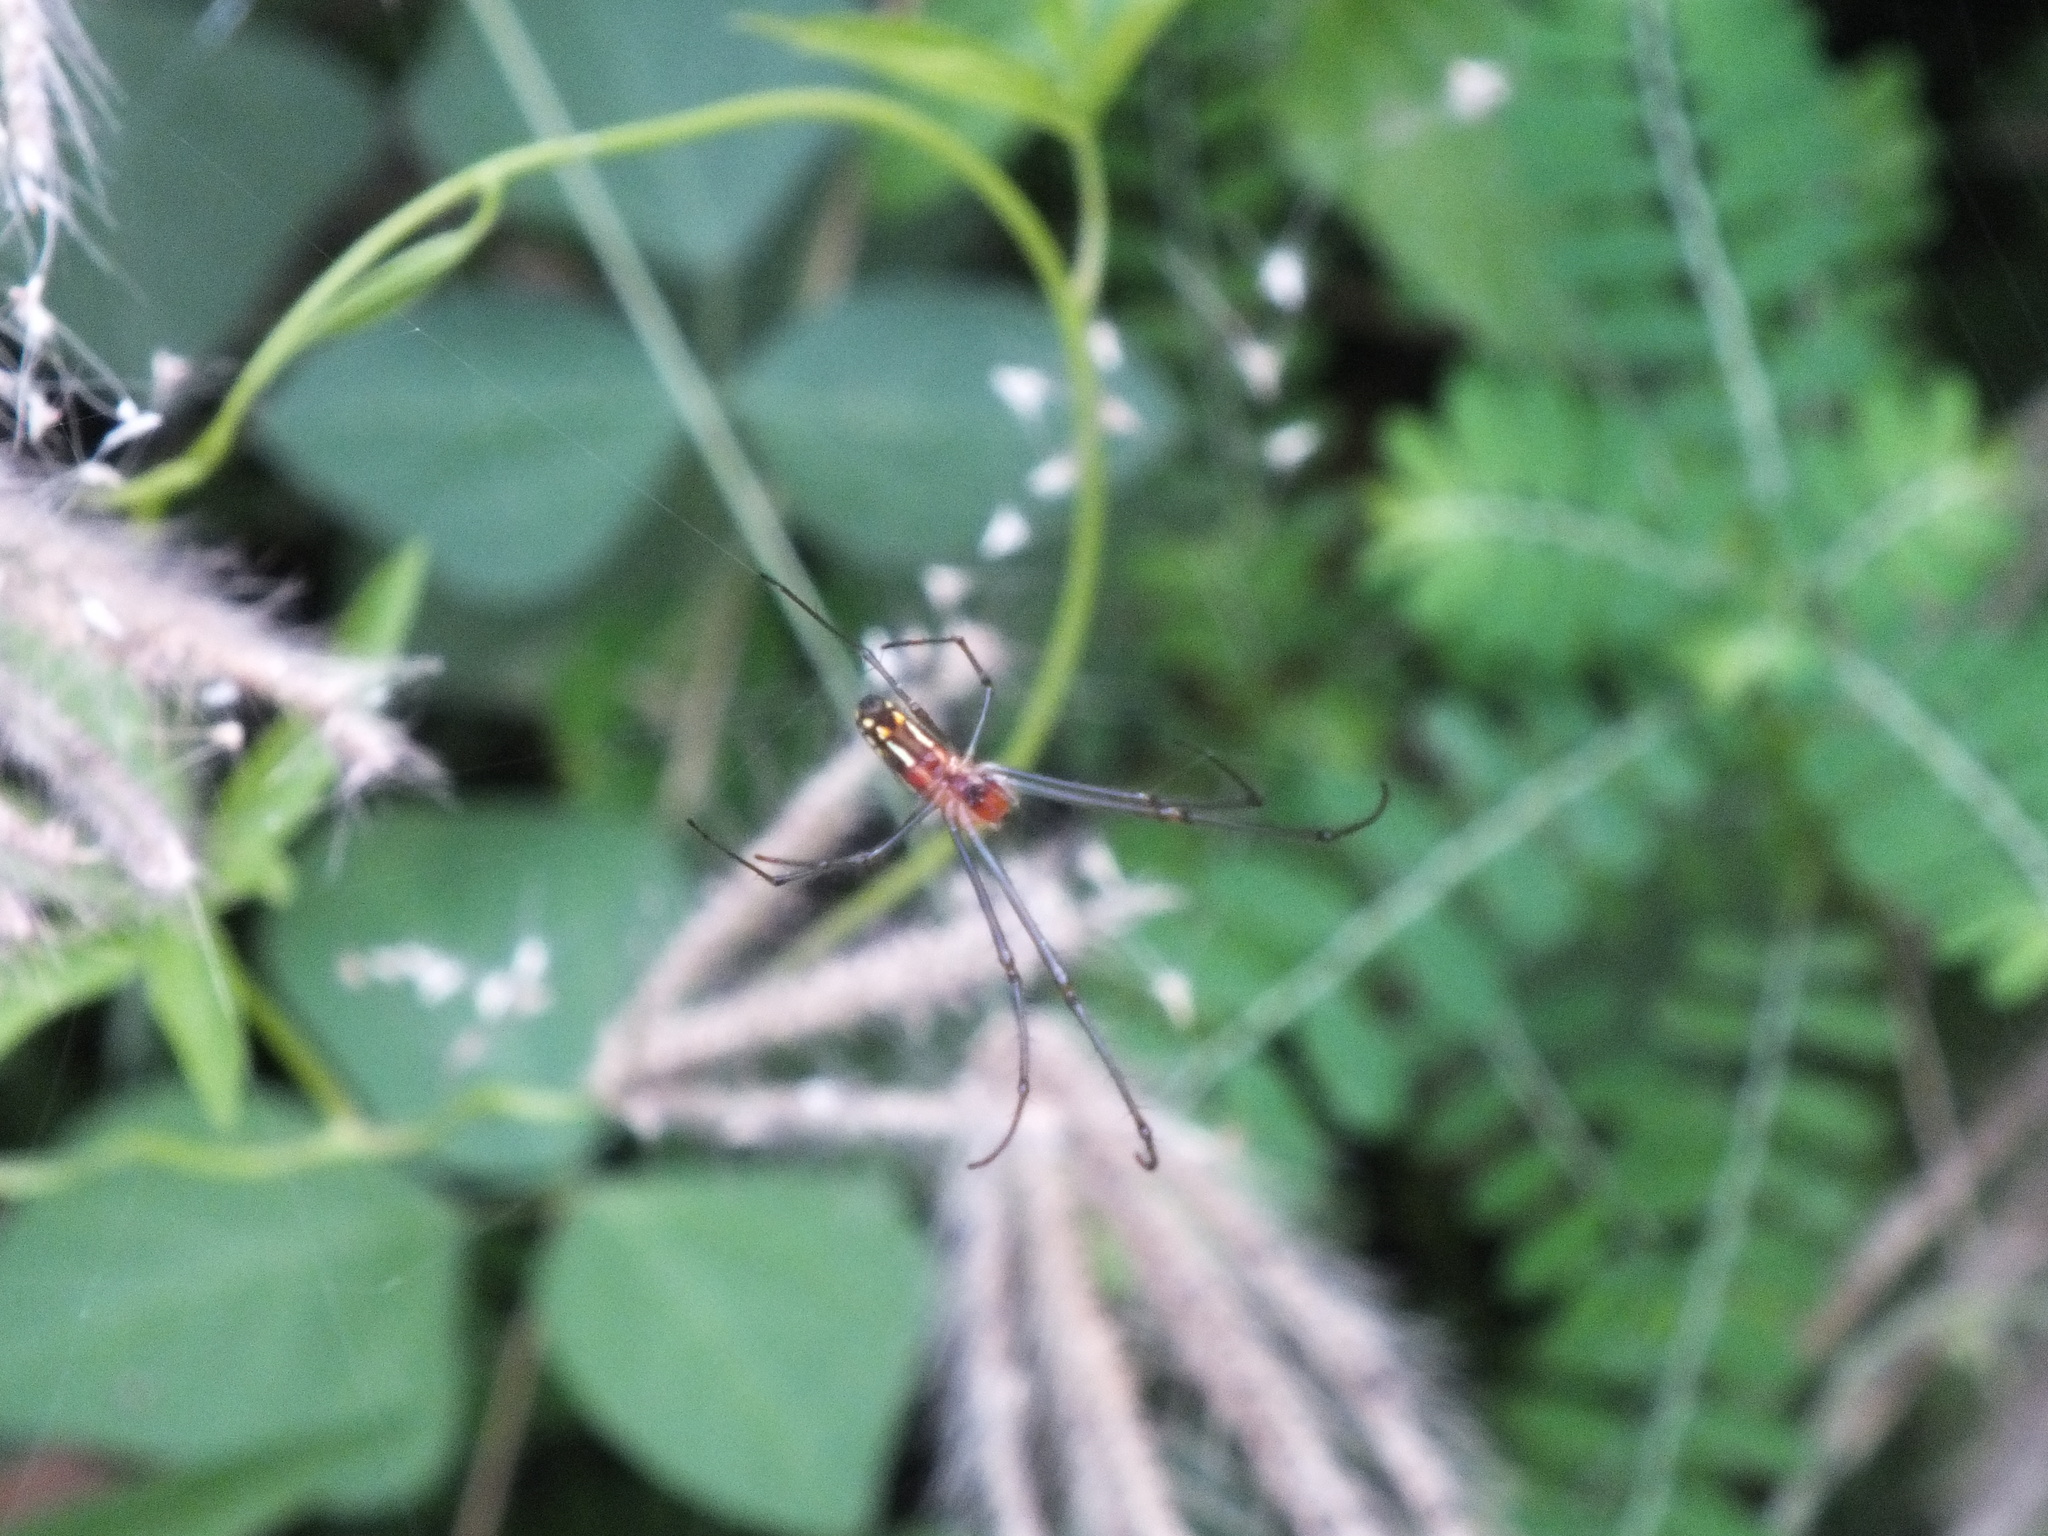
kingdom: Animalia
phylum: Arthropoda
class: Arachnida
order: Araneae
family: Tetragnathidae
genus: Leucauge
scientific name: Leucauge argyra
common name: Longjawed orb weavers
